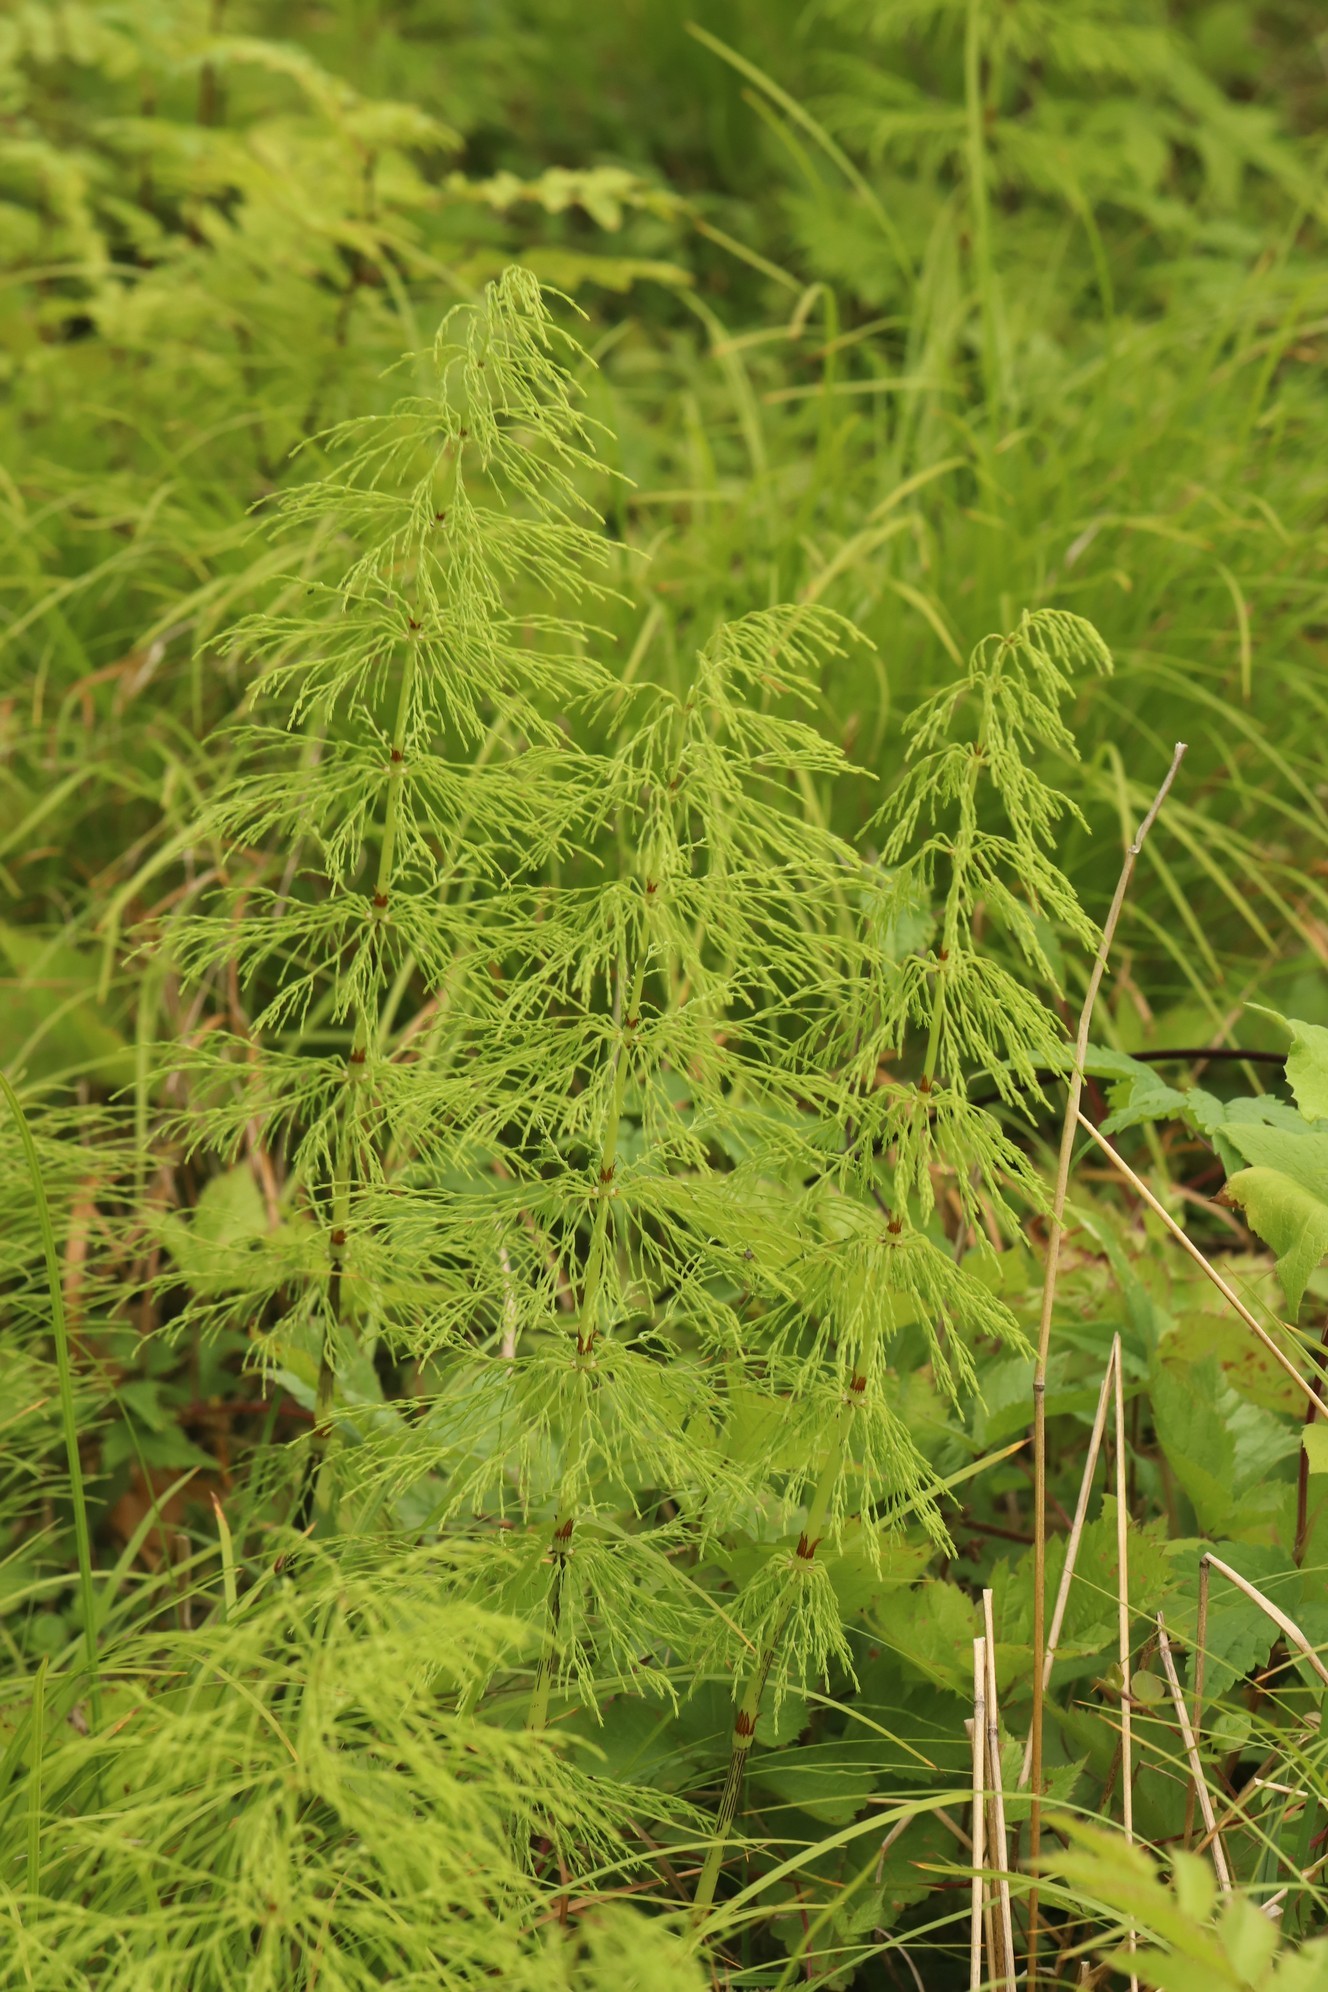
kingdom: Plantae
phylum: Tracheophyta
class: Polypodiopsida
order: Equisetales
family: Equisetaceae
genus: Equisetum
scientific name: Equisetum sylvaticum
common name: Wood horsetail
